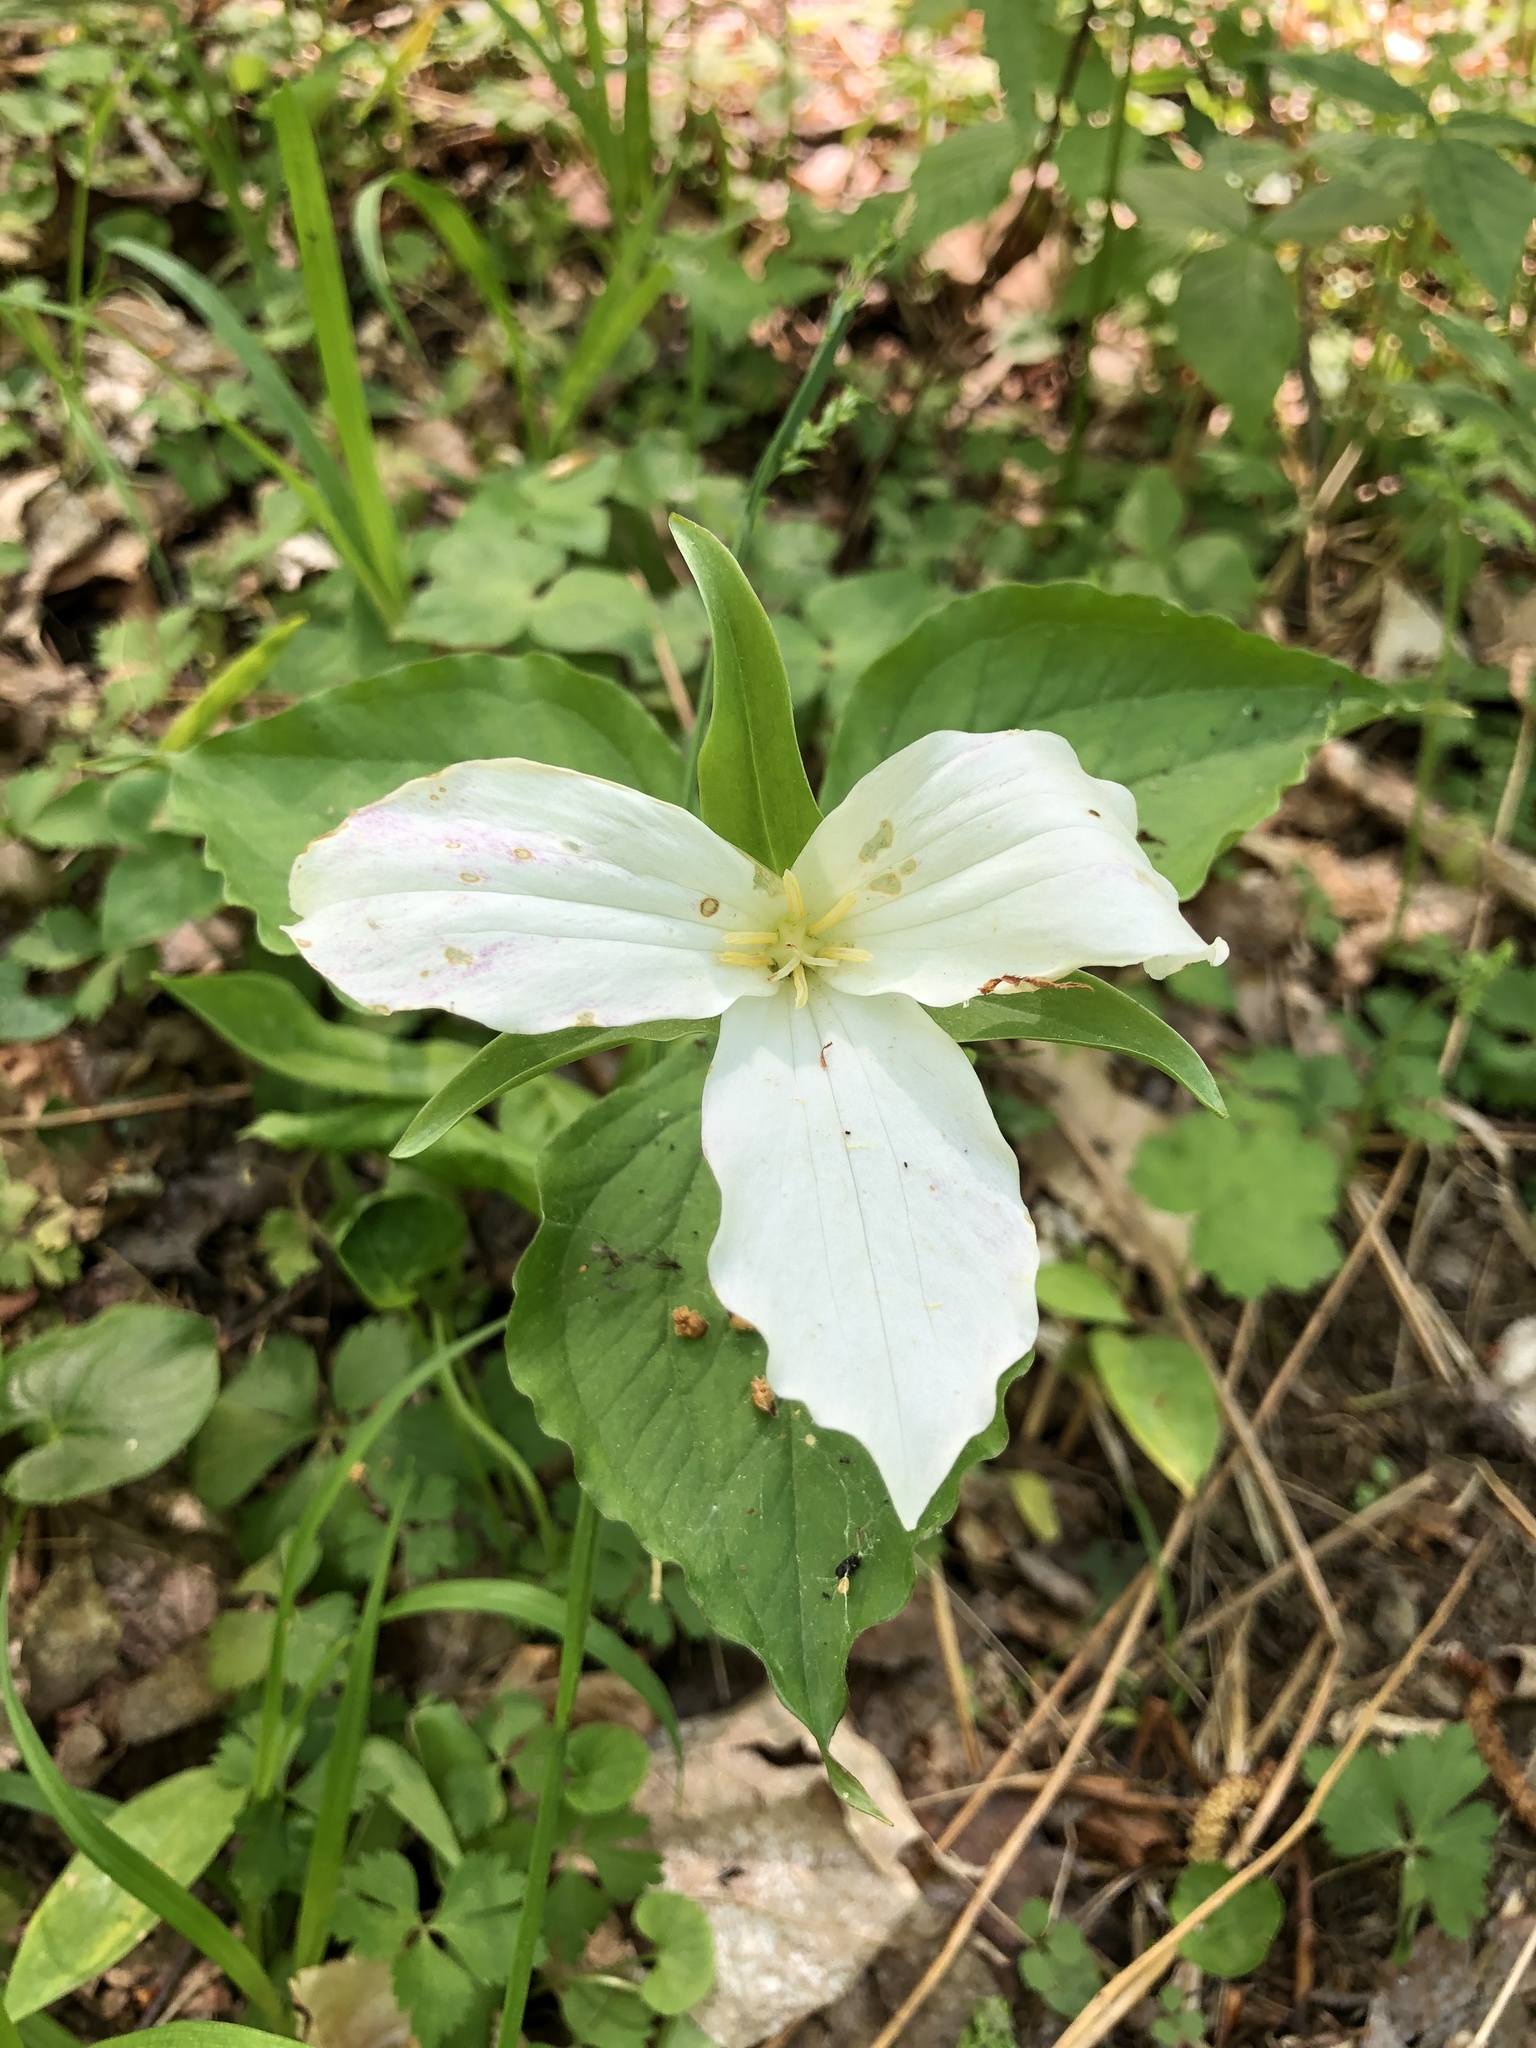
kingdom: Plantae
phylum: Tracheophyta
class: Liliopsida
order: Liliales
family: Melanthiaceae
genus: Trillium
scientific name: Trillium grandiflorum
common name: Great white trillium
